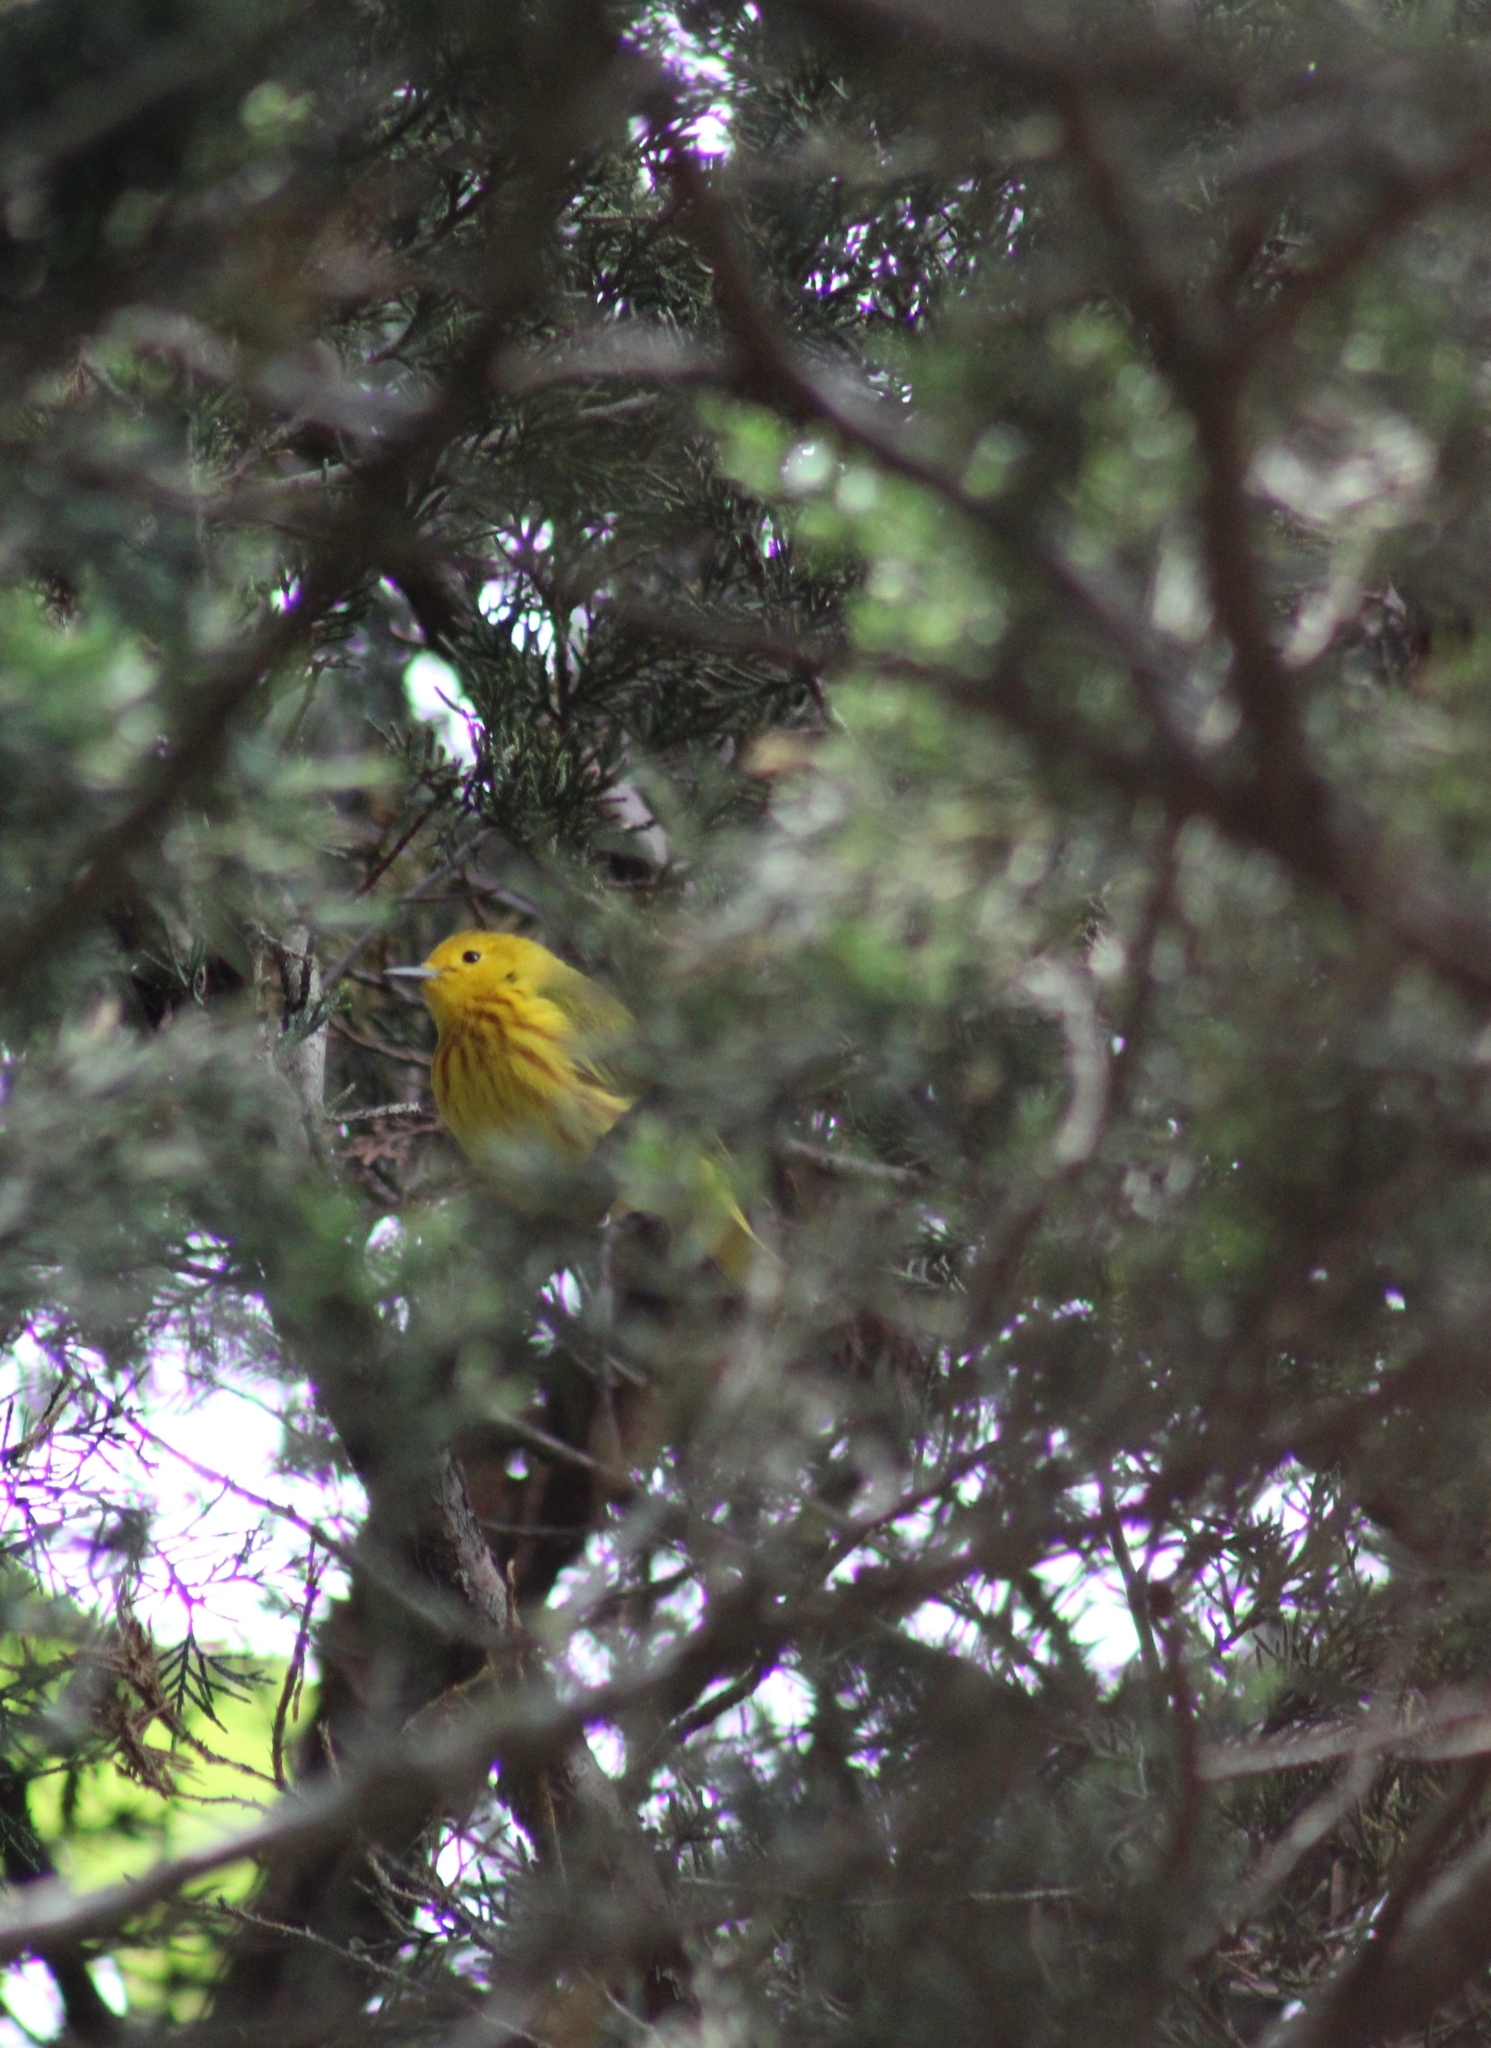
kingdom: Animalia
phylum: Chordata
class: Aves
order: Passeriformes
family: Parulidae
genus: Setophaga
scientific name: Setophaga petechia
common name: Yellow warbler
